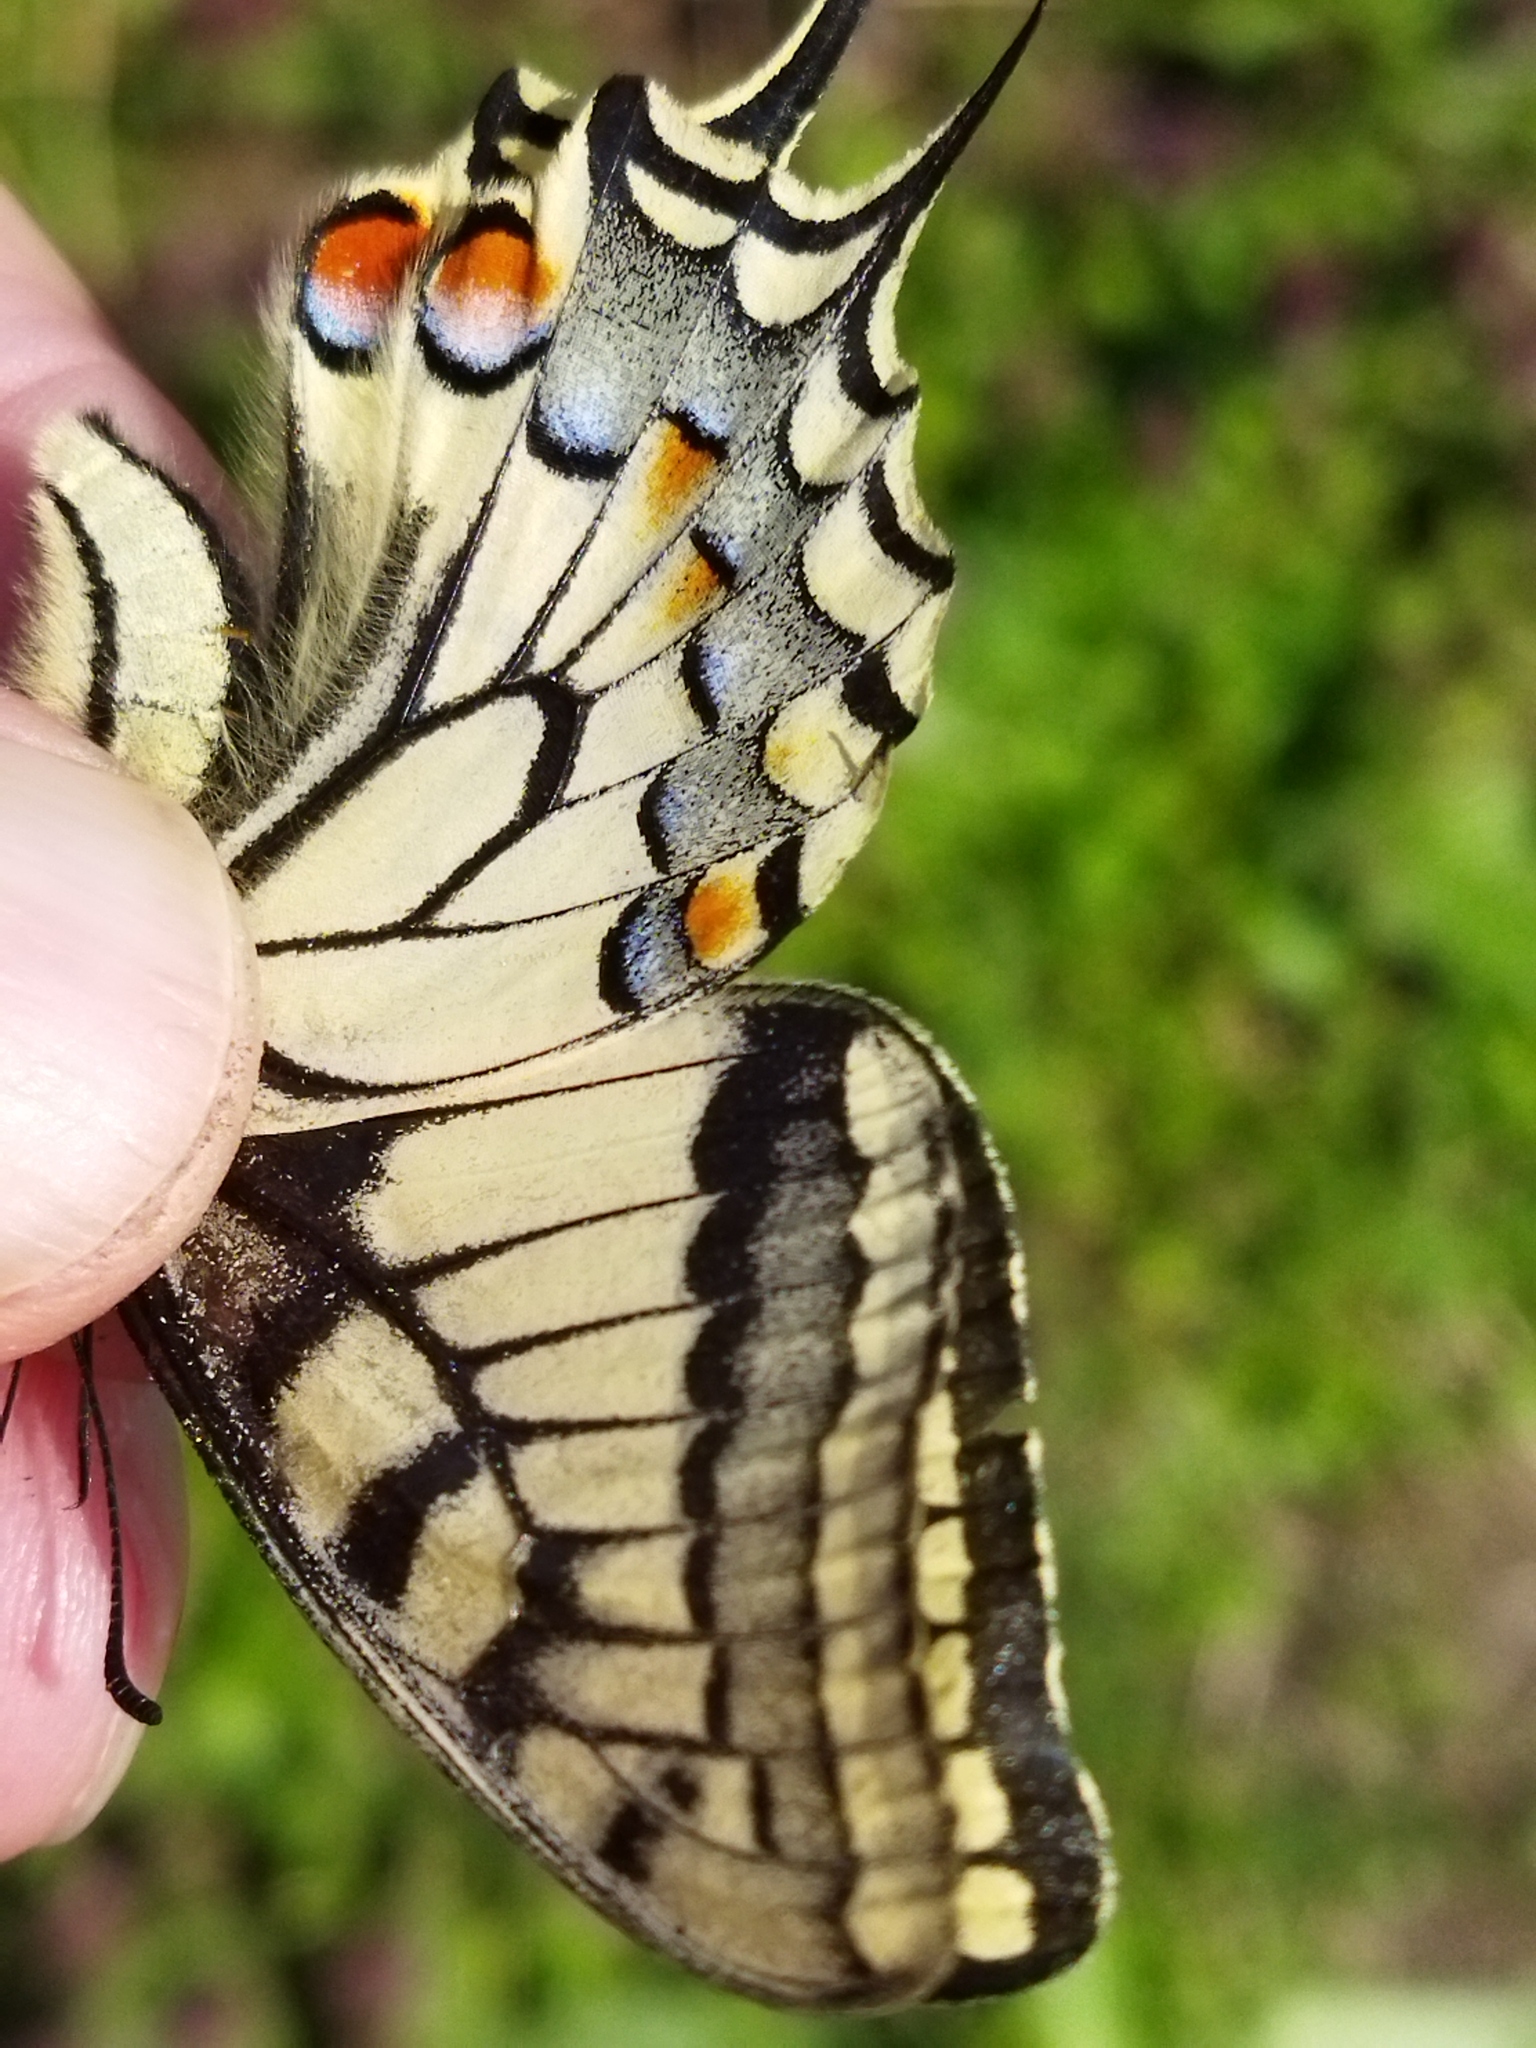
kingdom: Animalia
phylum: Arthropoda
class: Insecta
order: Lepidoptera
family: Papilionidae
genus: Papilio
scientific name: Papilio machaon
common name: Swallowtail
